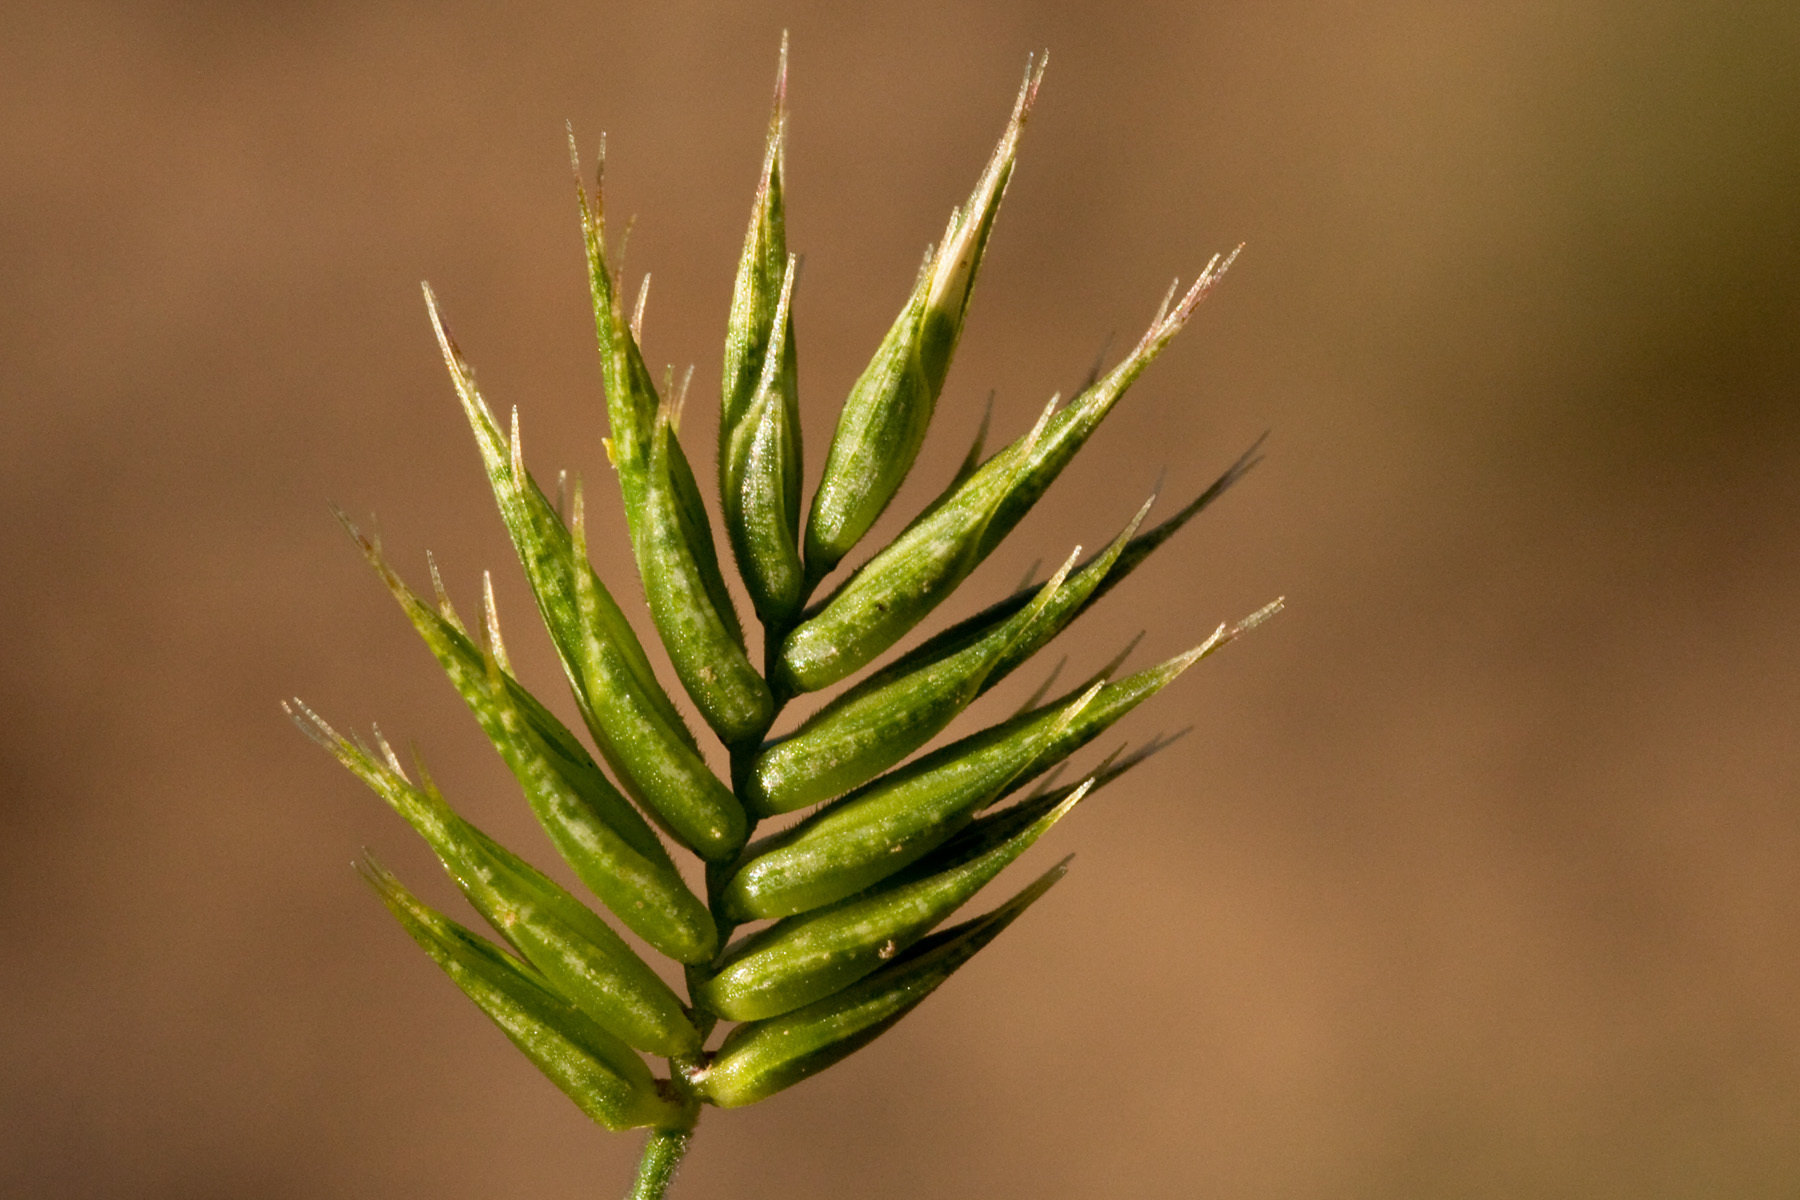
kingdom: Plantae
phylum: Tracheophyta
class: Liliopsida
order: Poales
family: Poaceae
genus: Eremopyrum
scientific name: Eremopyrum triticeum
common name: Annual wheatgrass
